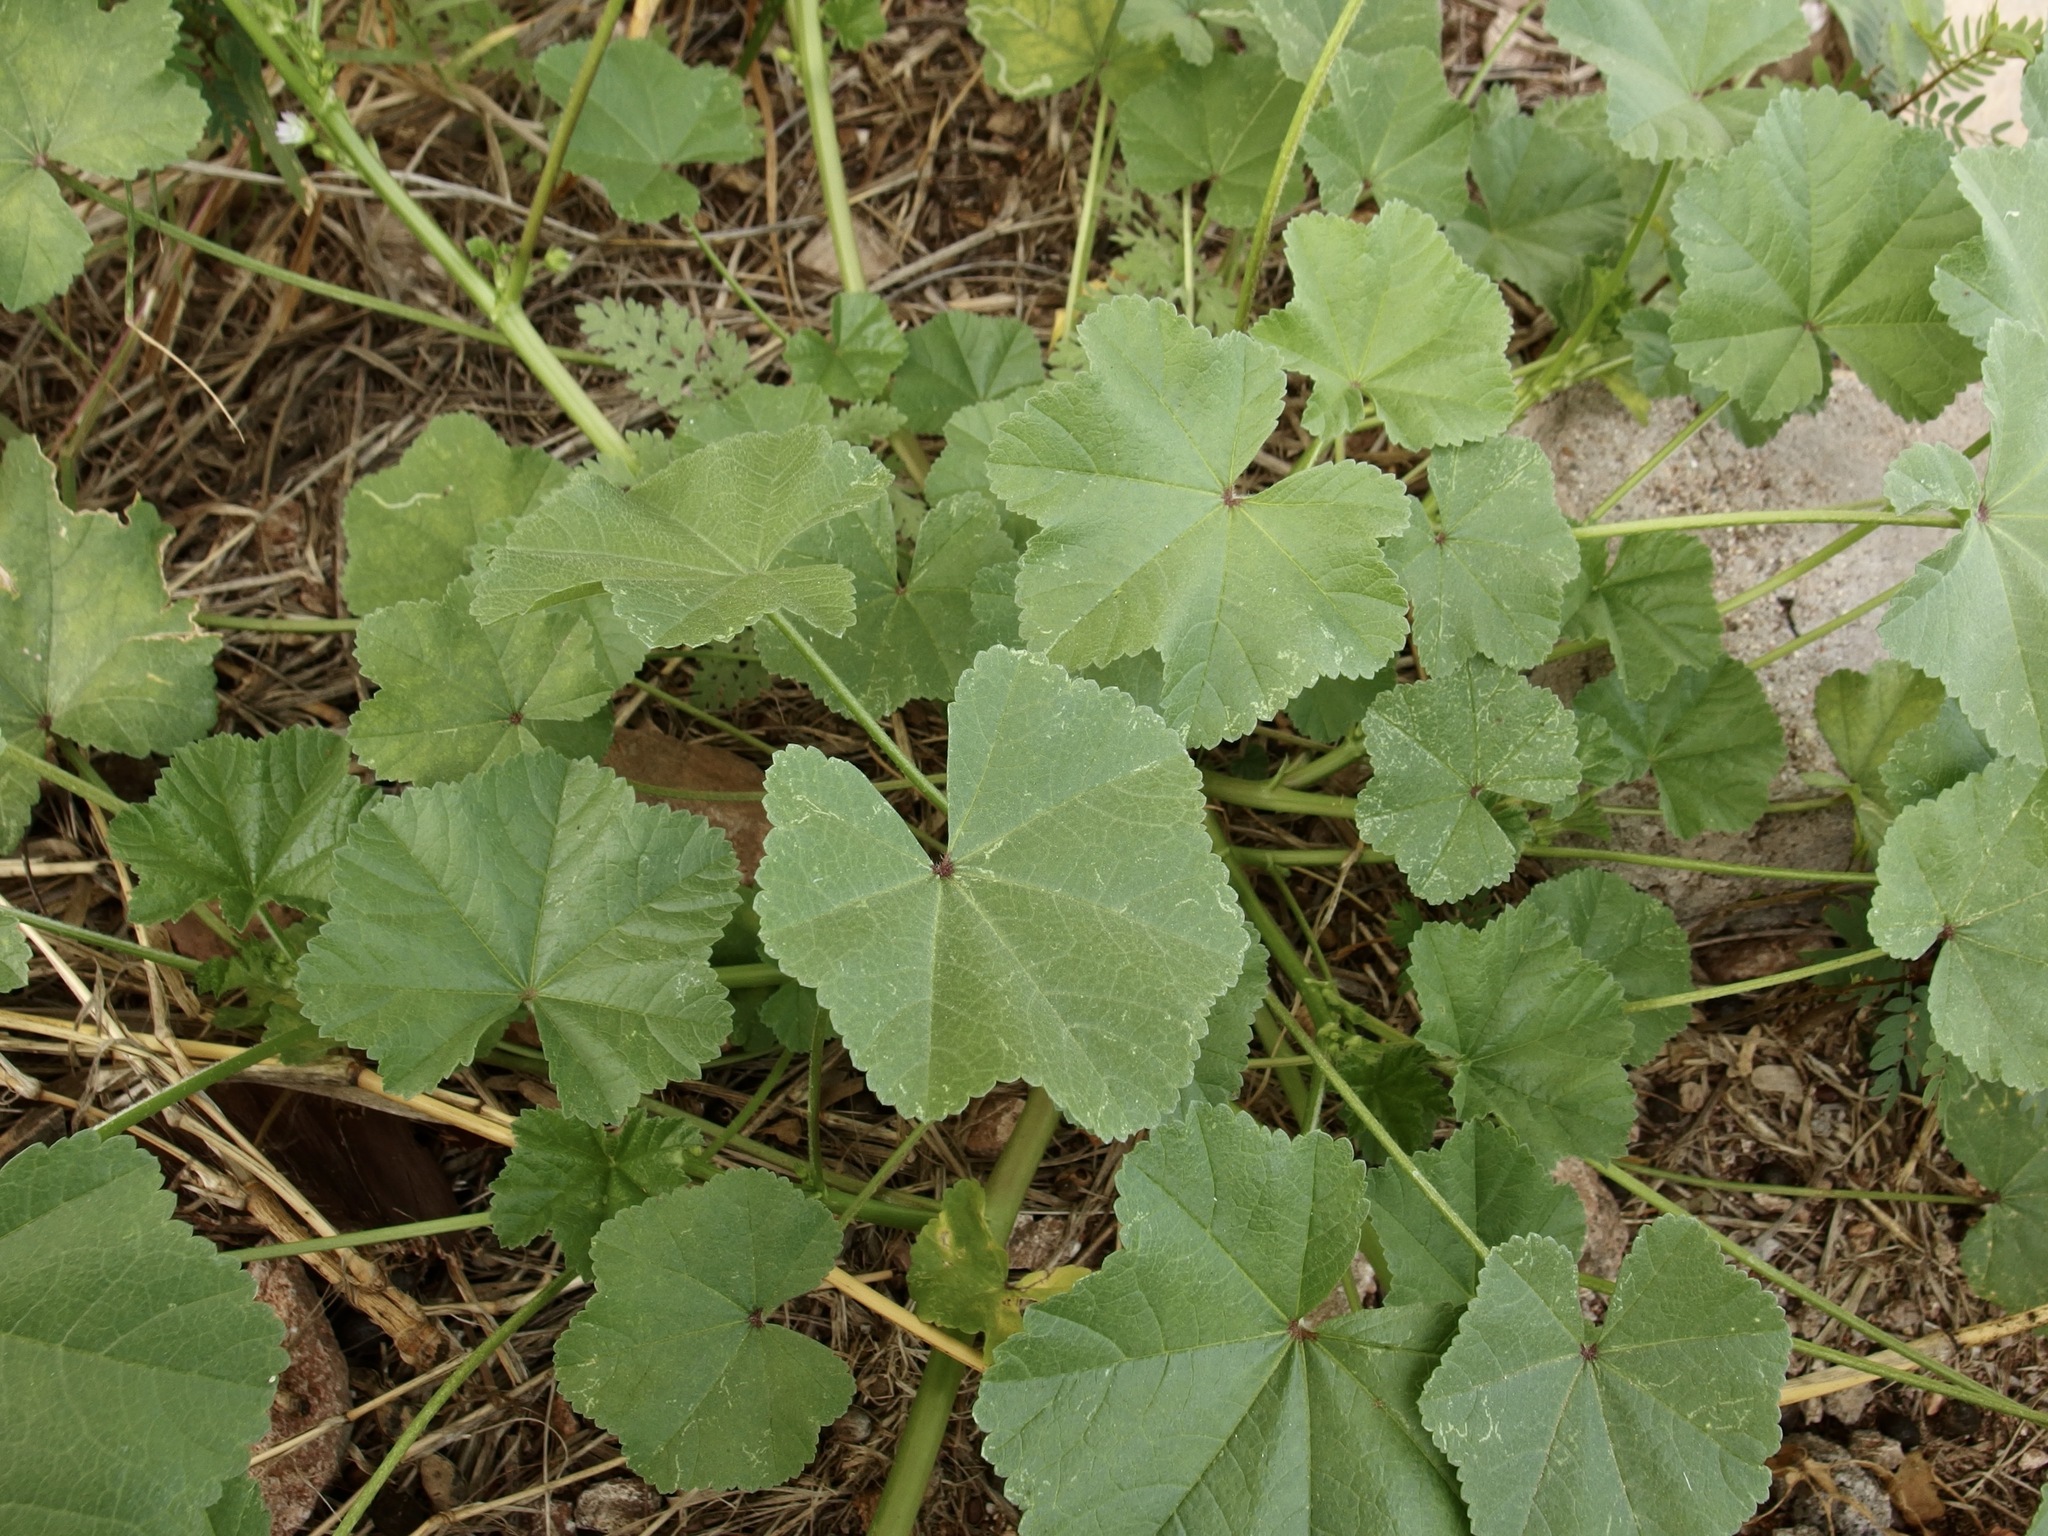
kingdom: Plantae
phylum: Tracheophyta
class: Magnoliopsida
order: Malvales
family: Malvaceae
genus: Malva
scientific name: Malva parviflora
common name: Least mallow
